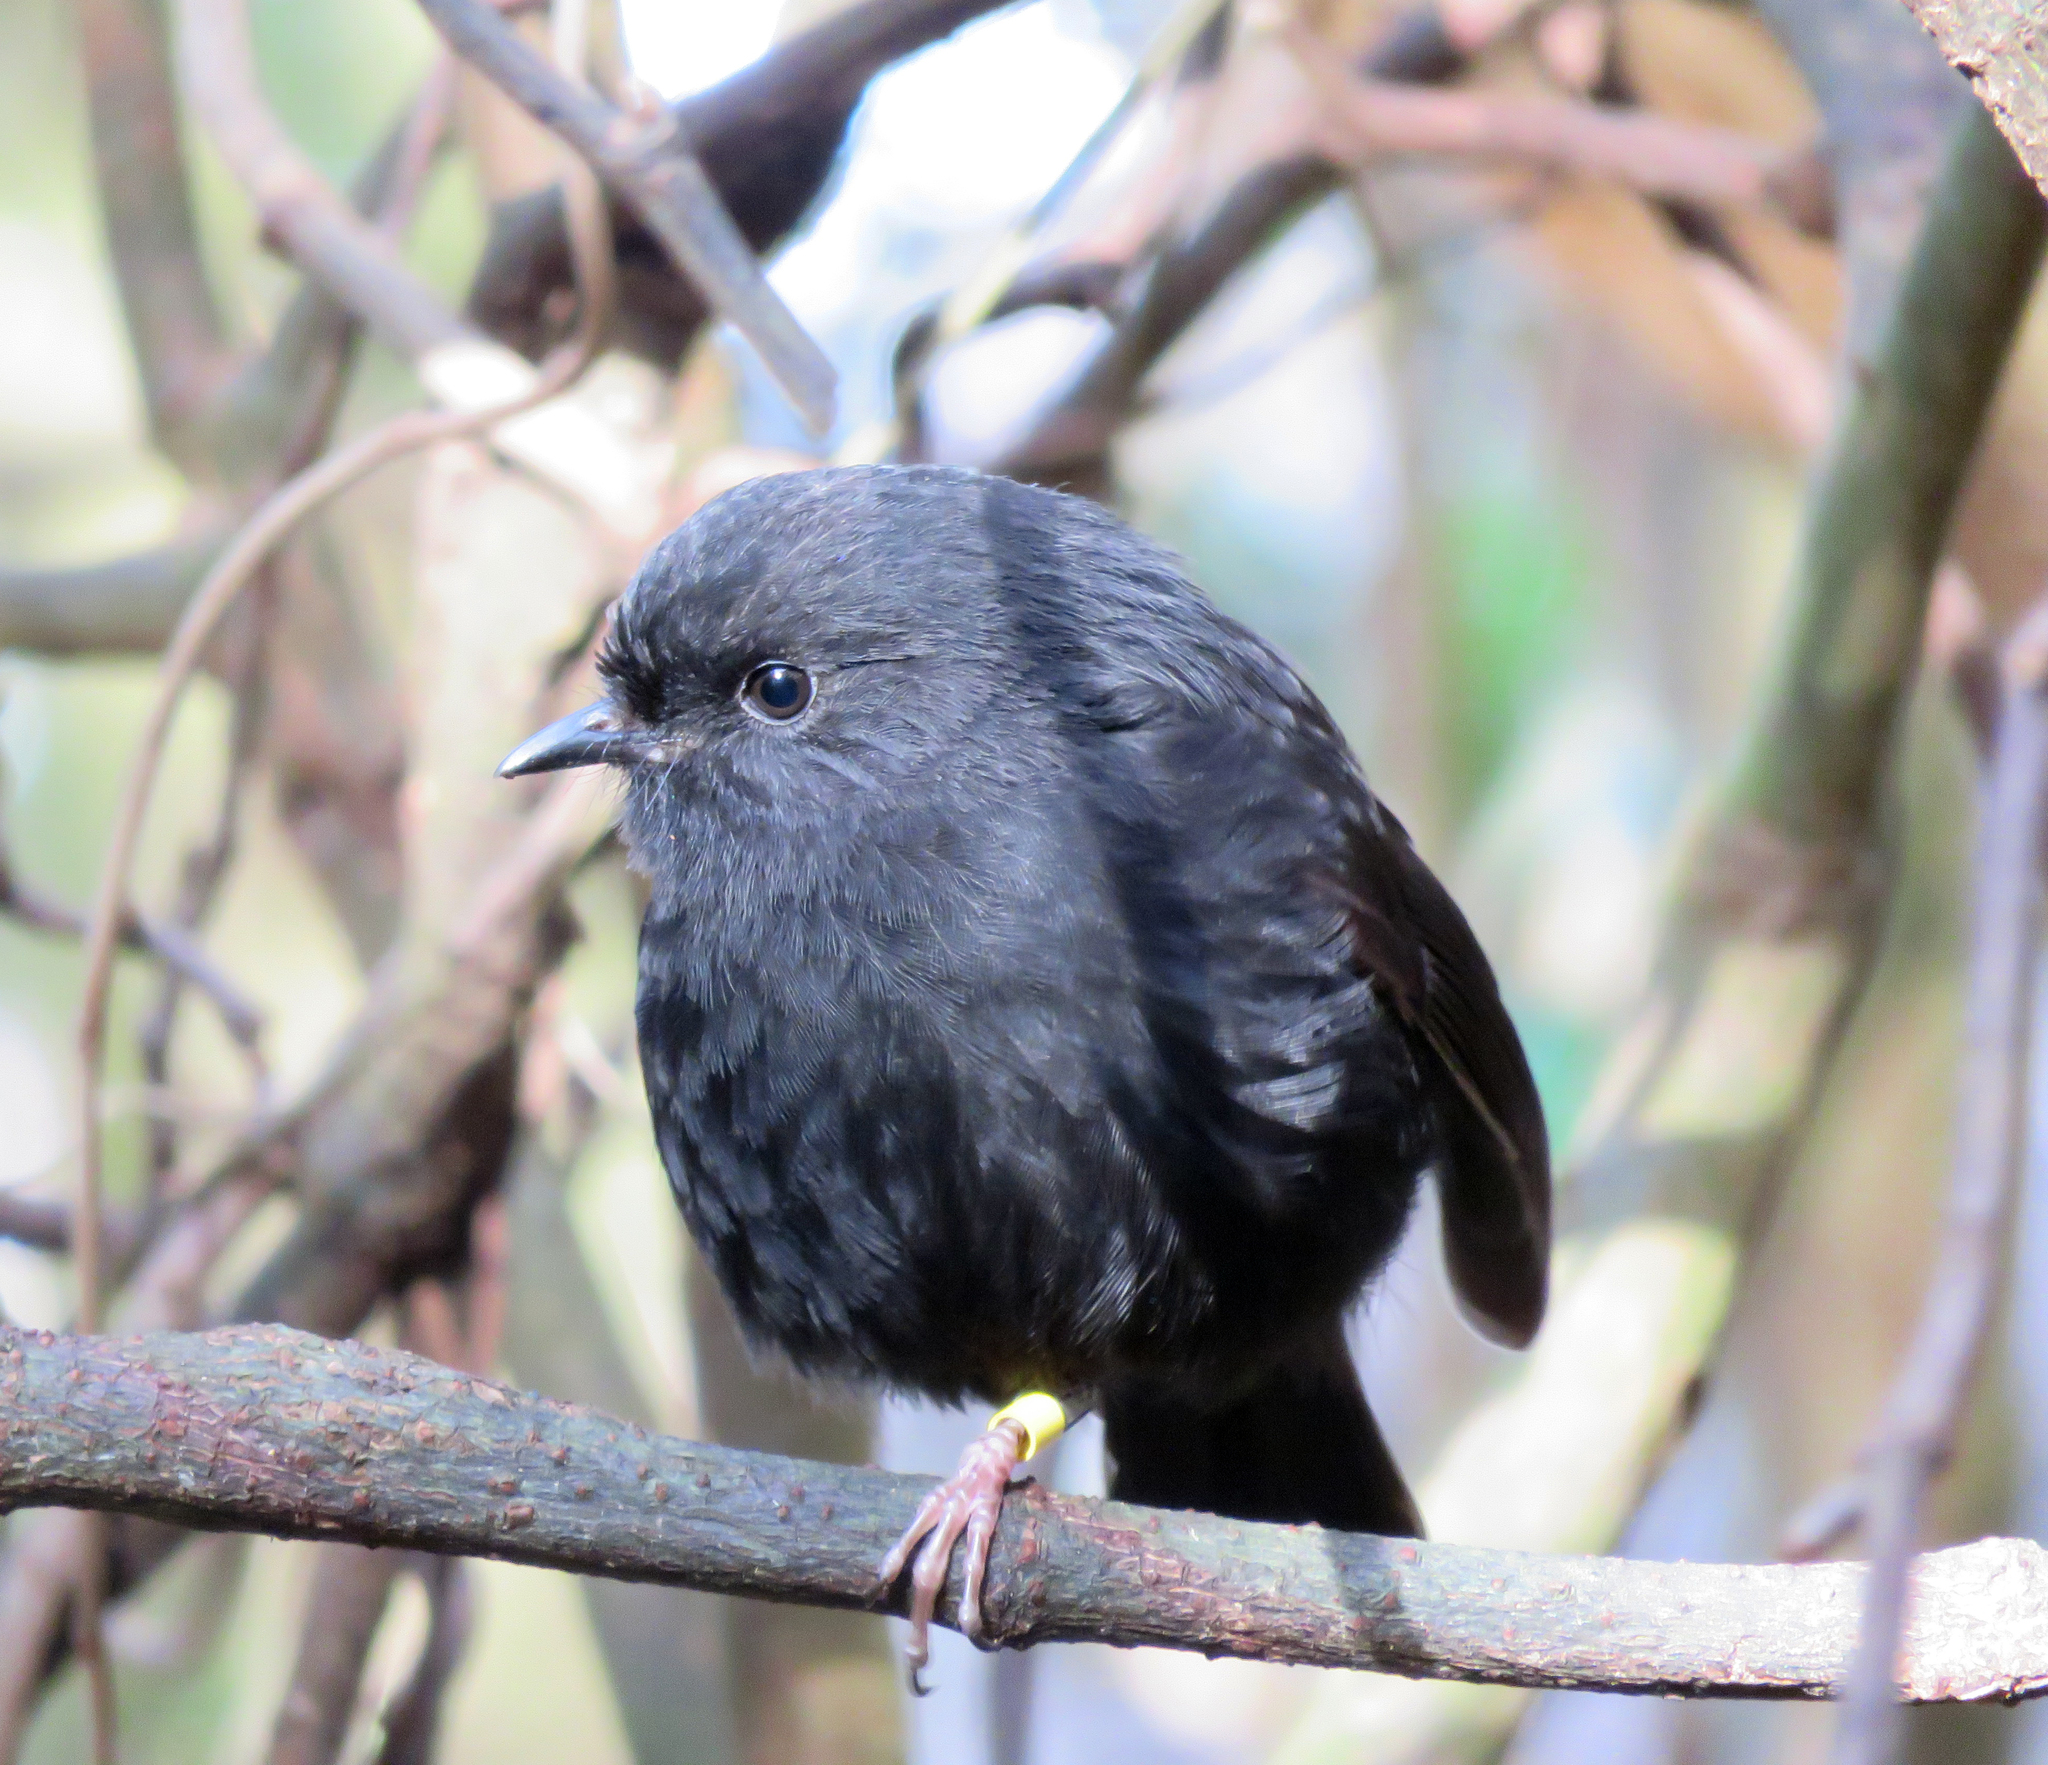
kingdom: Animalia
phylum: Chordata
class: Aves
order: Passeriformes
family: Petroicidae
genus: Petroica
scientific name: Petroica traversi
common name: Black robin
